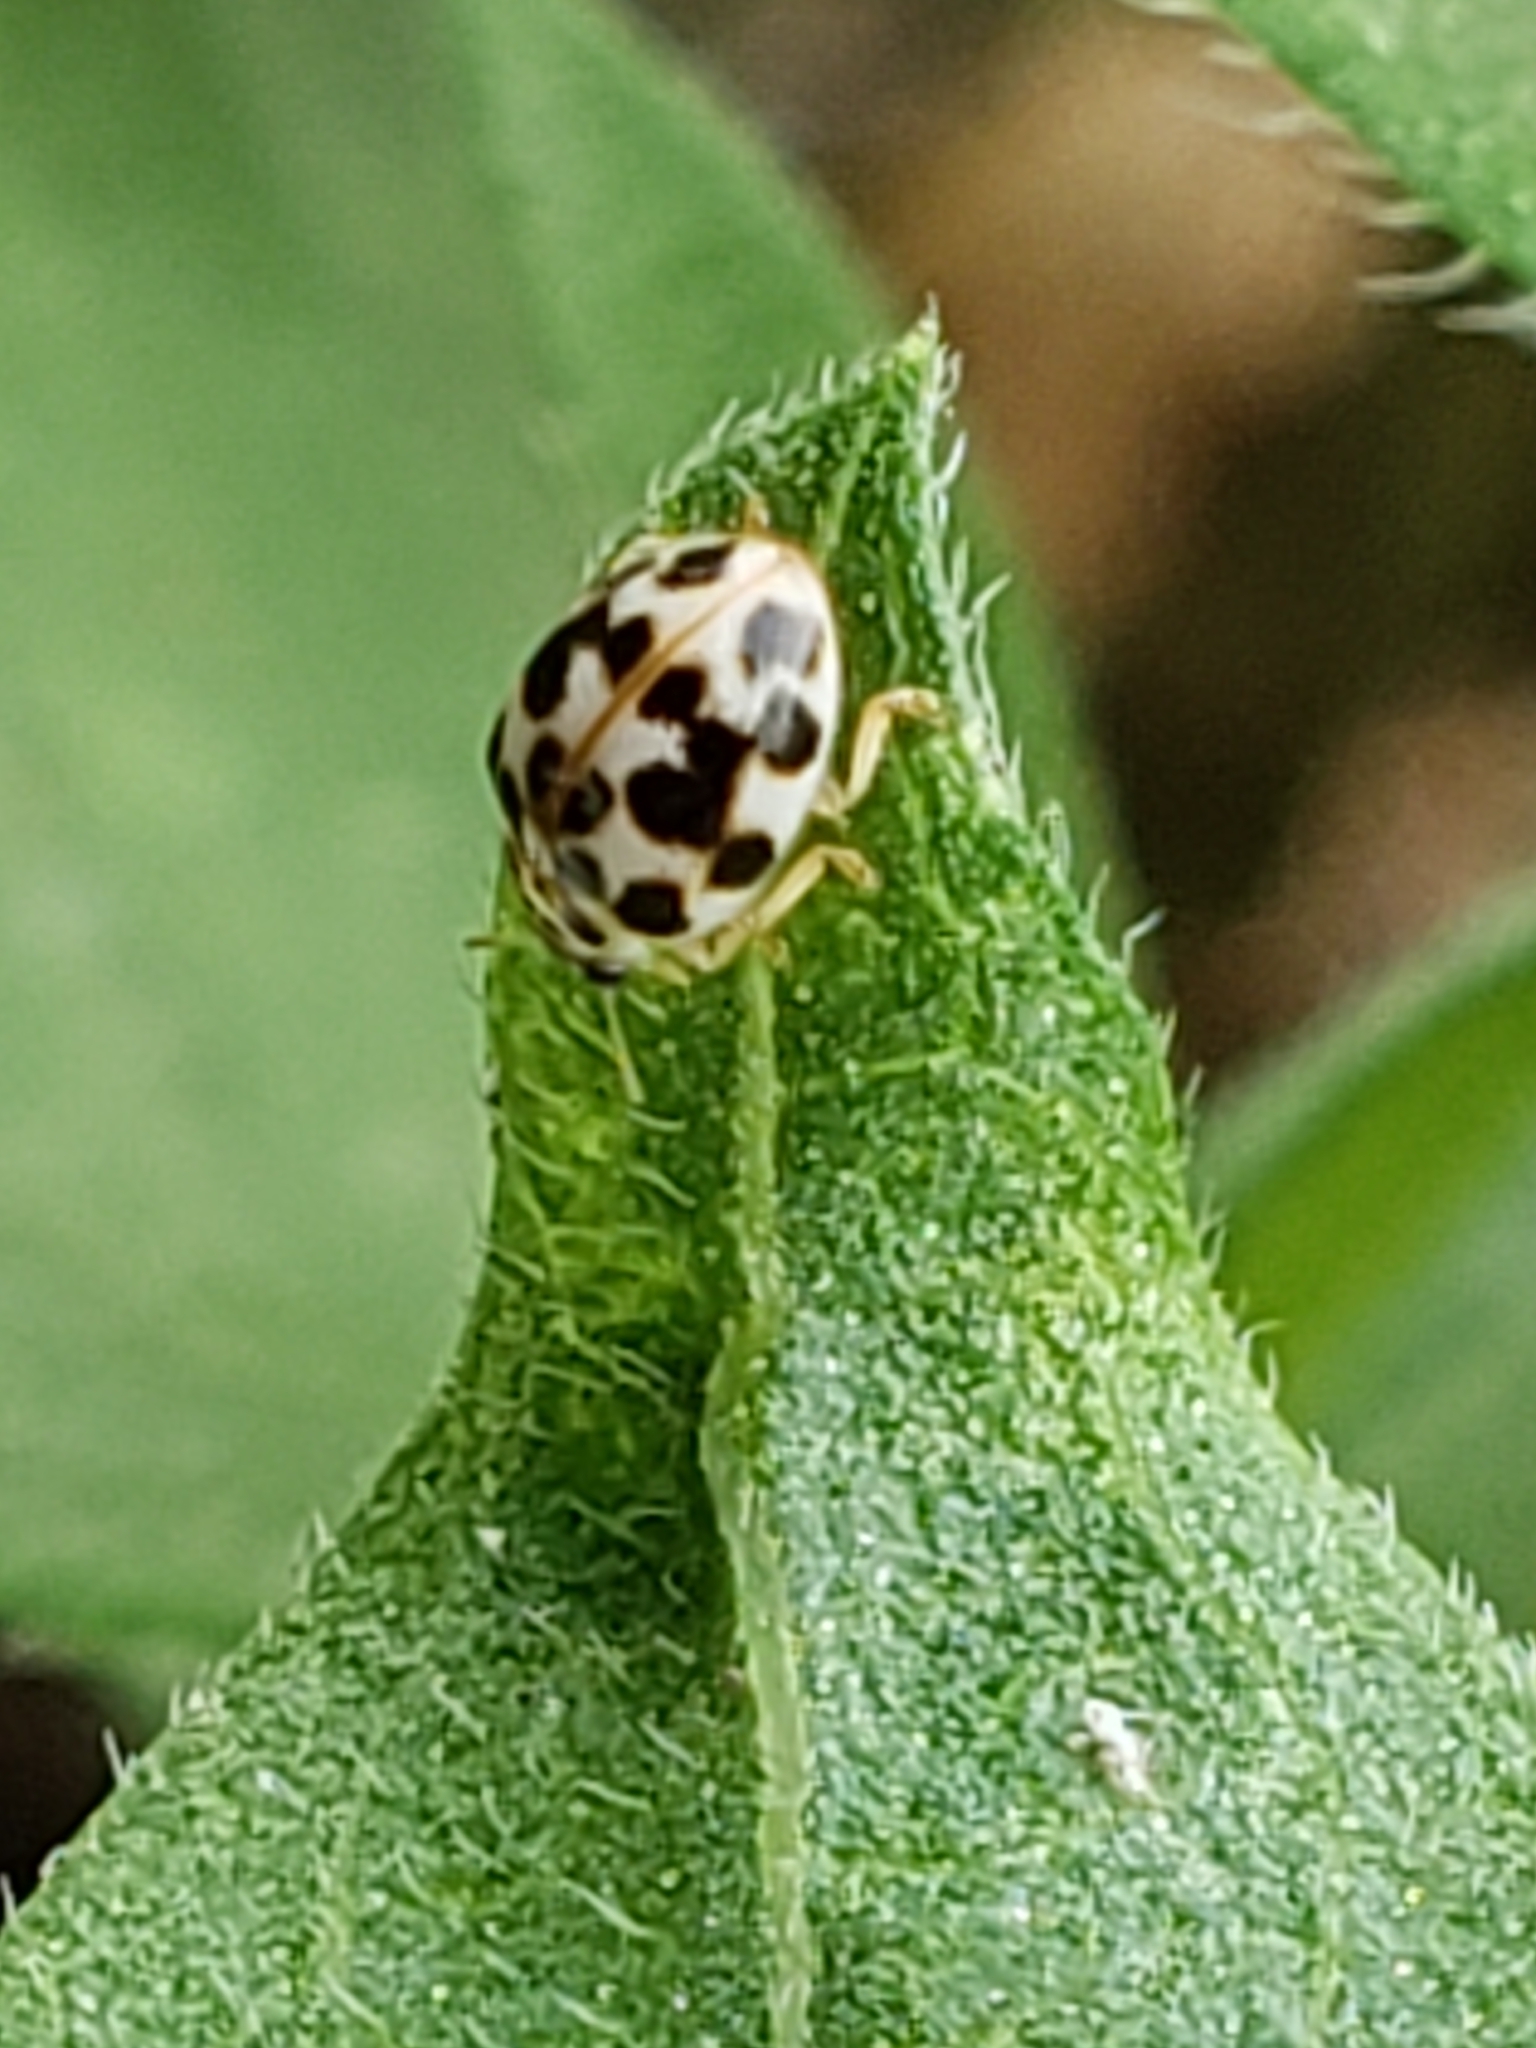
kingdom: Animalia
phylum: Arthropoda
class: Insecta
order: Coleoptera
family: Coccinellidae
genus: Psyllobora
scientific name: Psyllobora vigintimaculata
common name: Ladybird beetle
